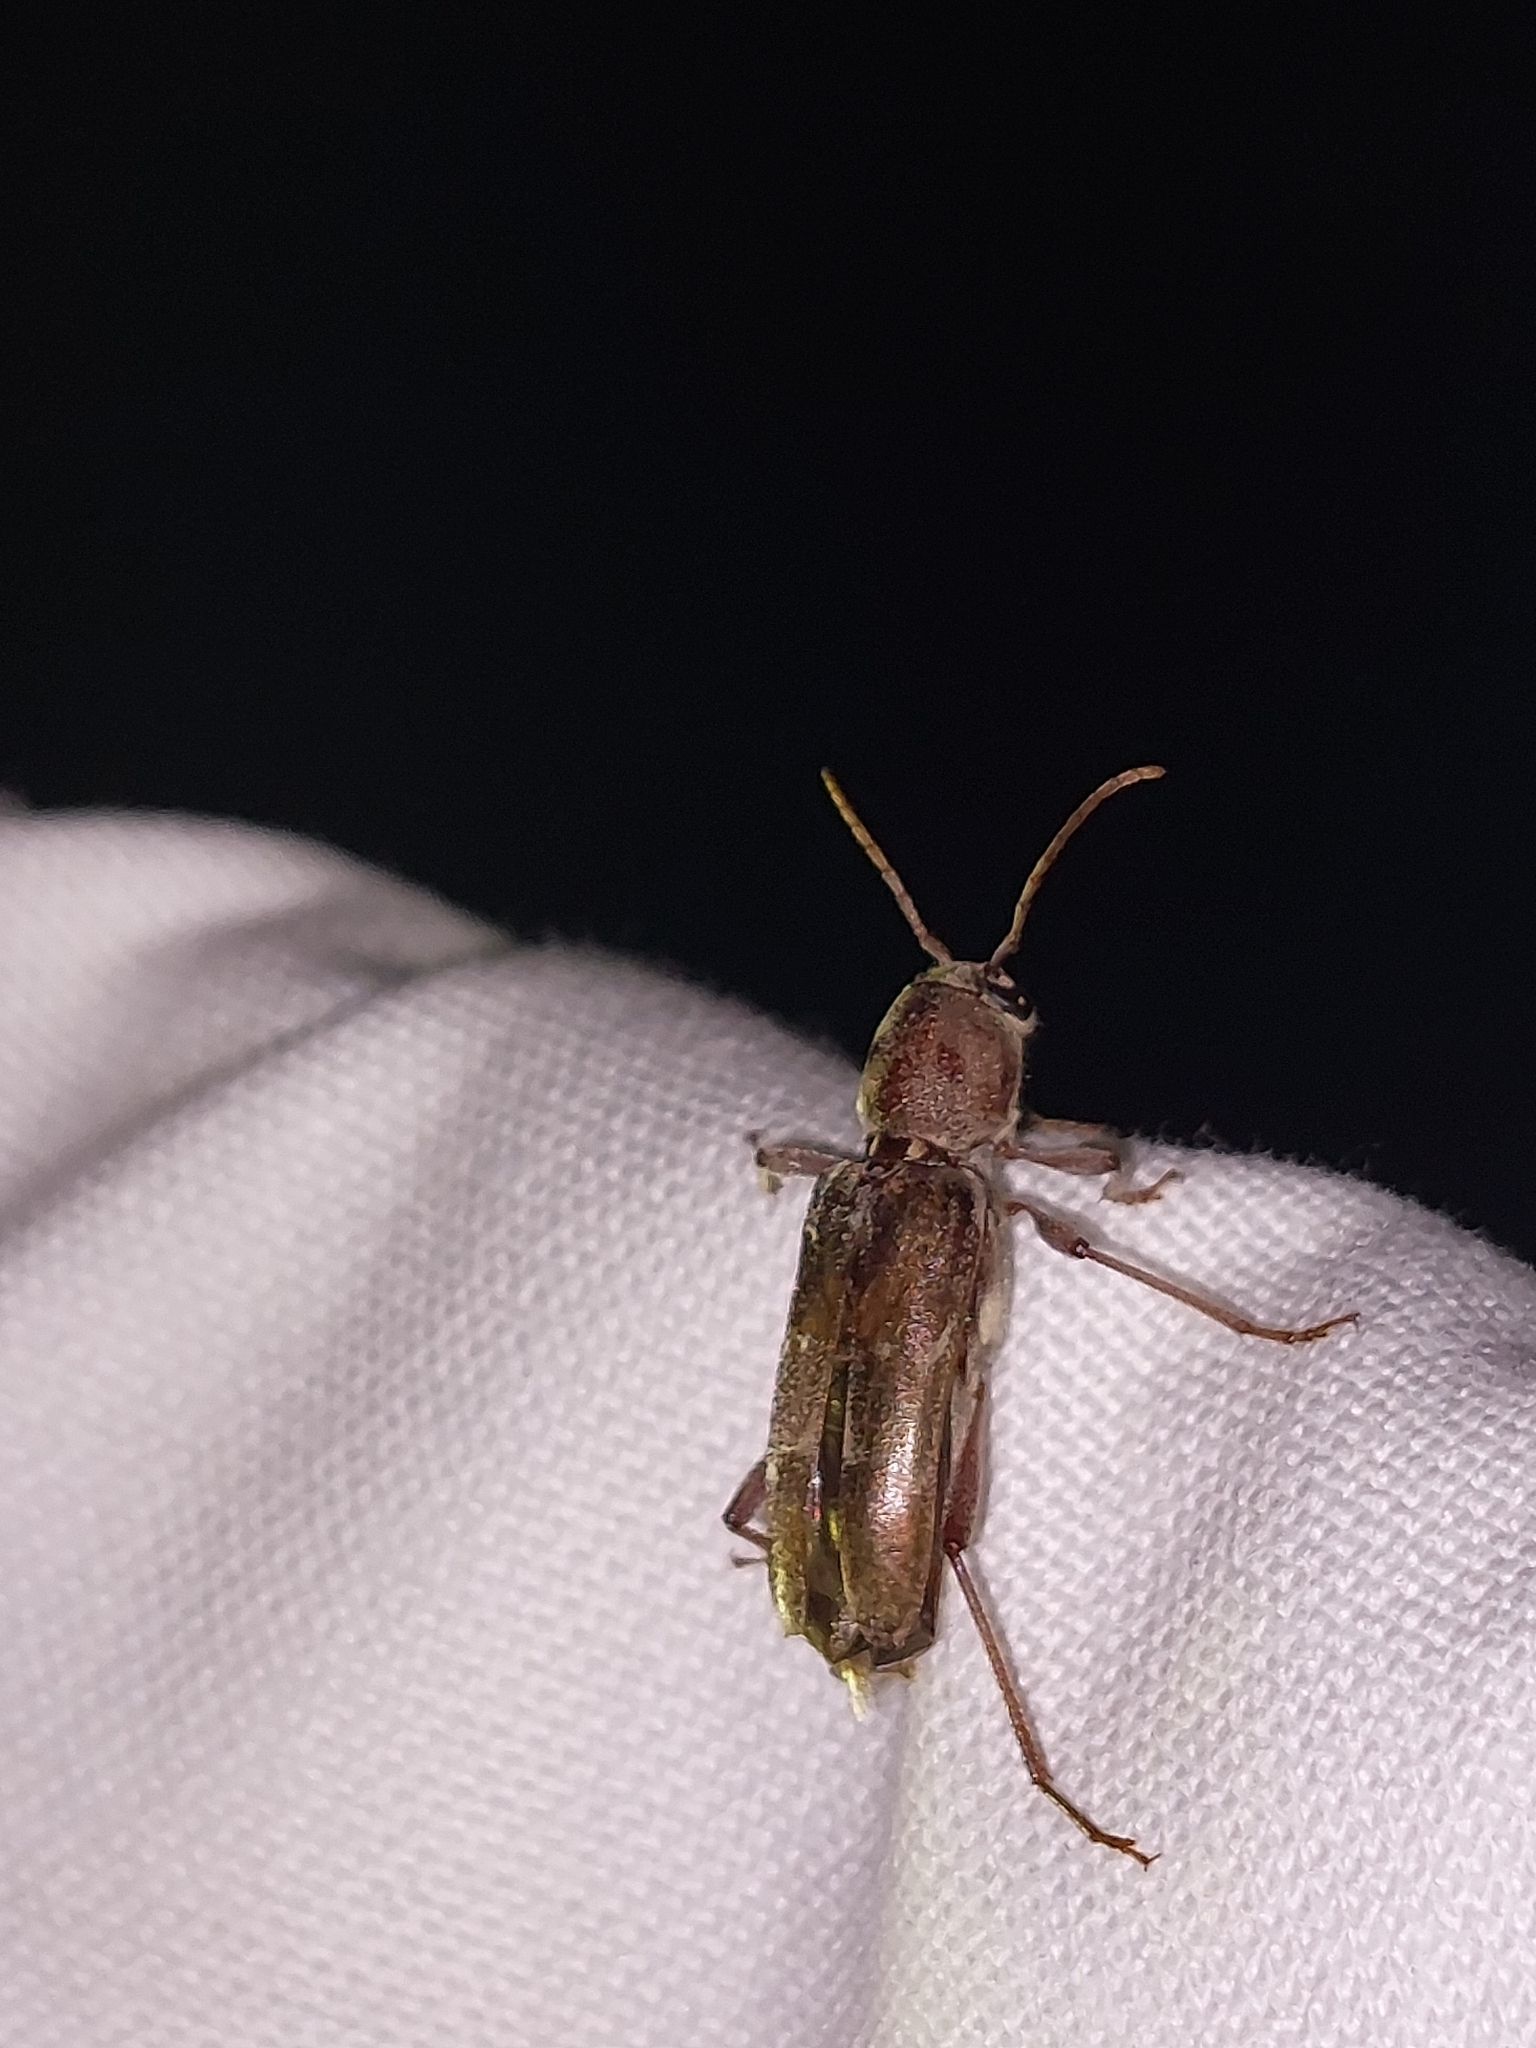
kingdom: Animalia
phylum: Arthropoda
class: Insecta
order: Coleoptera
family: Cerambycidae
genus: Xylotrechus
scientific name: Xylotrechus smei
